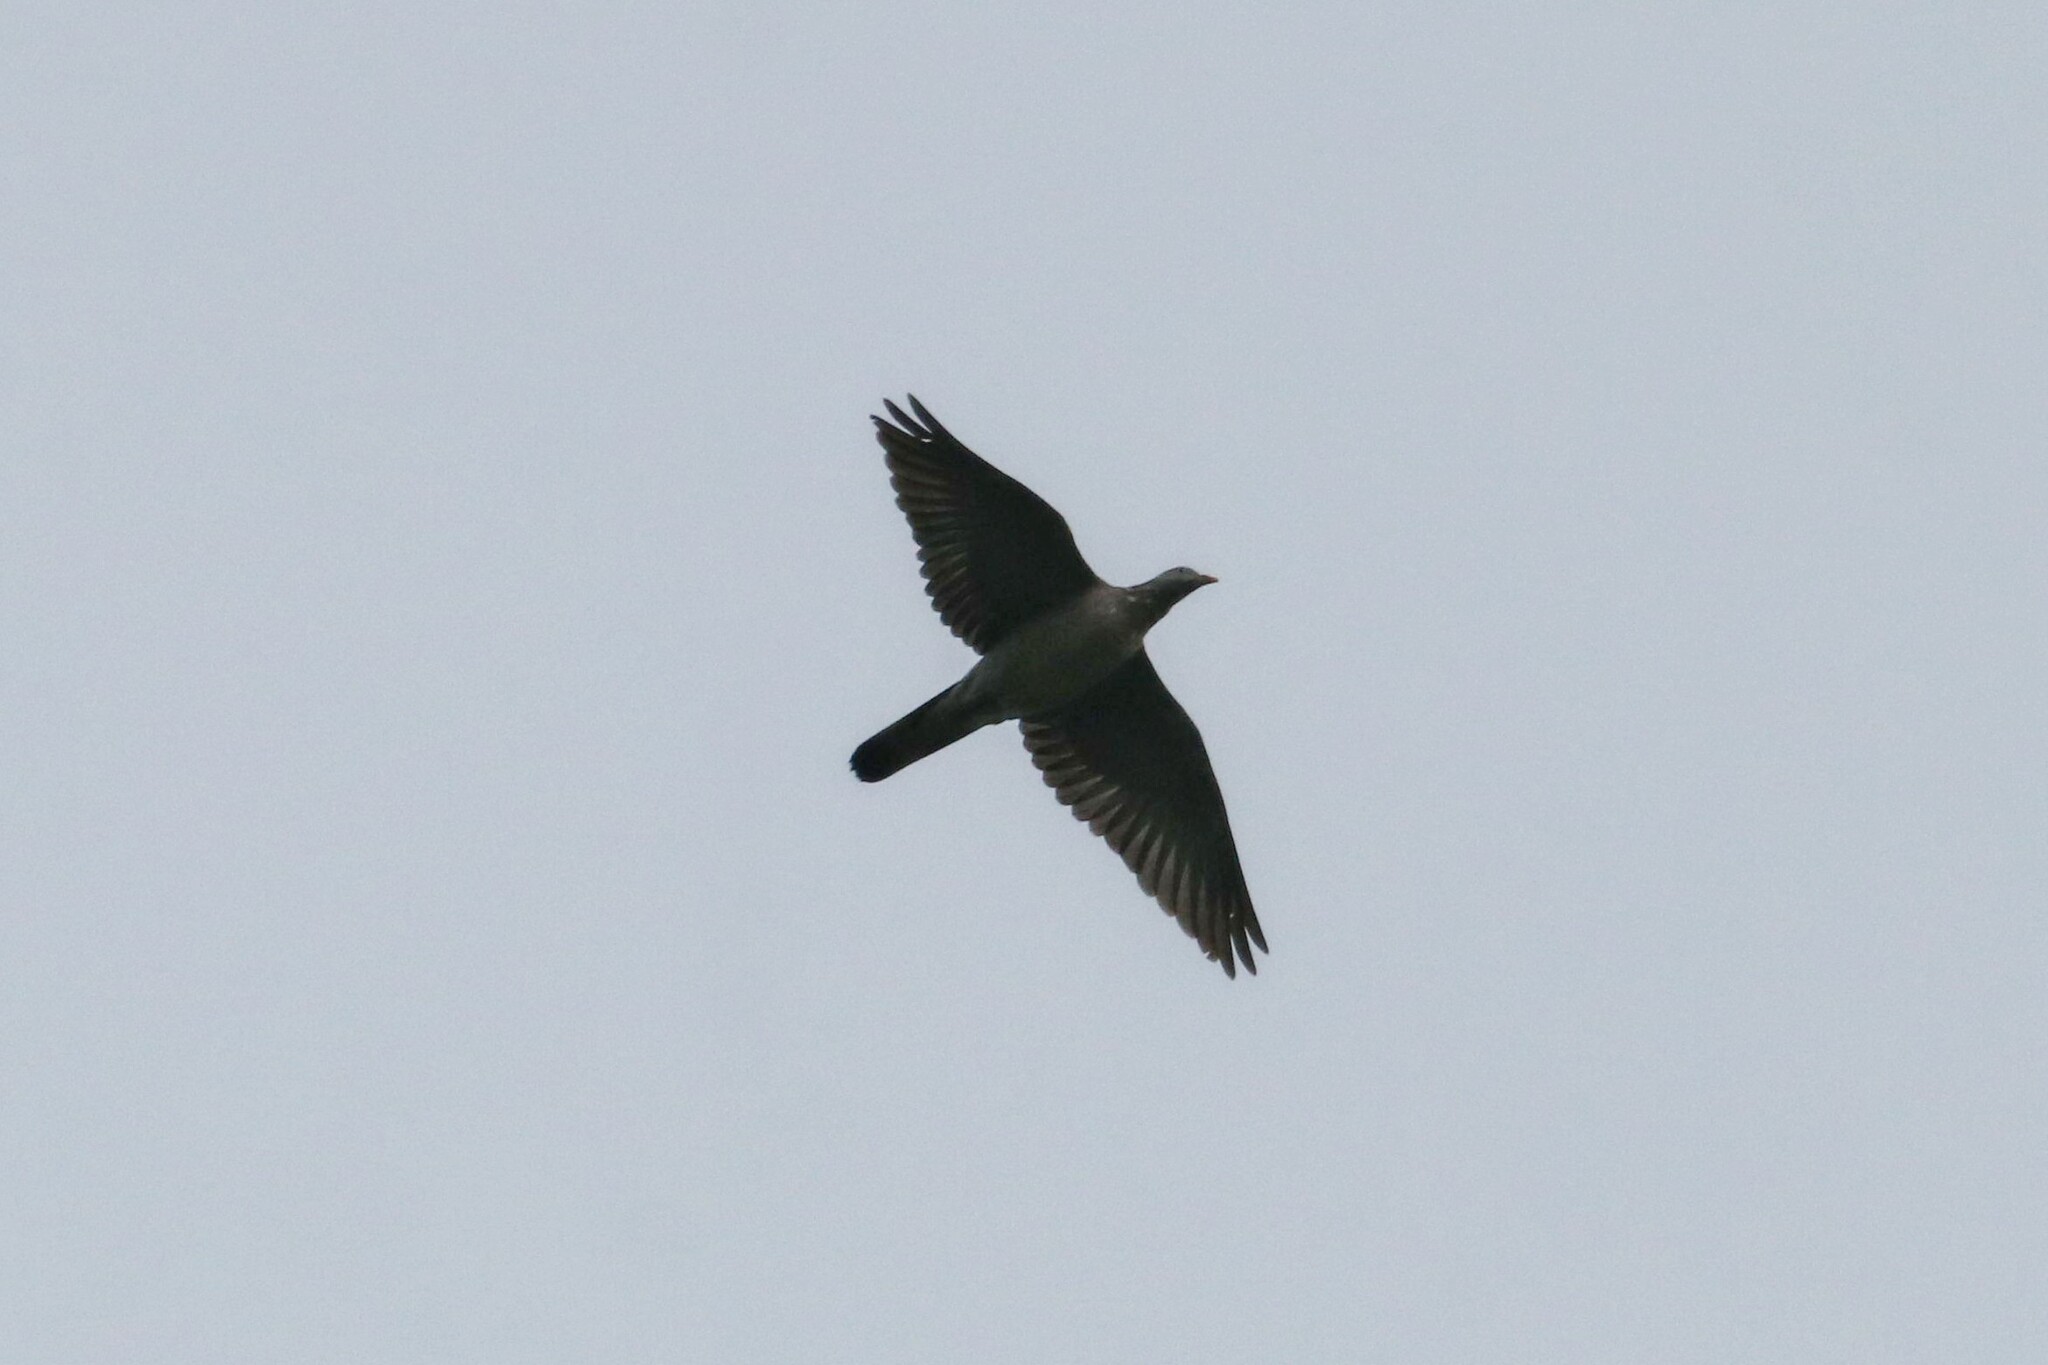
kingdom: Animalia
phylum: Chordata
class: Aves
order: Columbiformes
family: Columbidae
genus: Columba
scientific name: Columba palumbus
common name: Common wood pigeon
